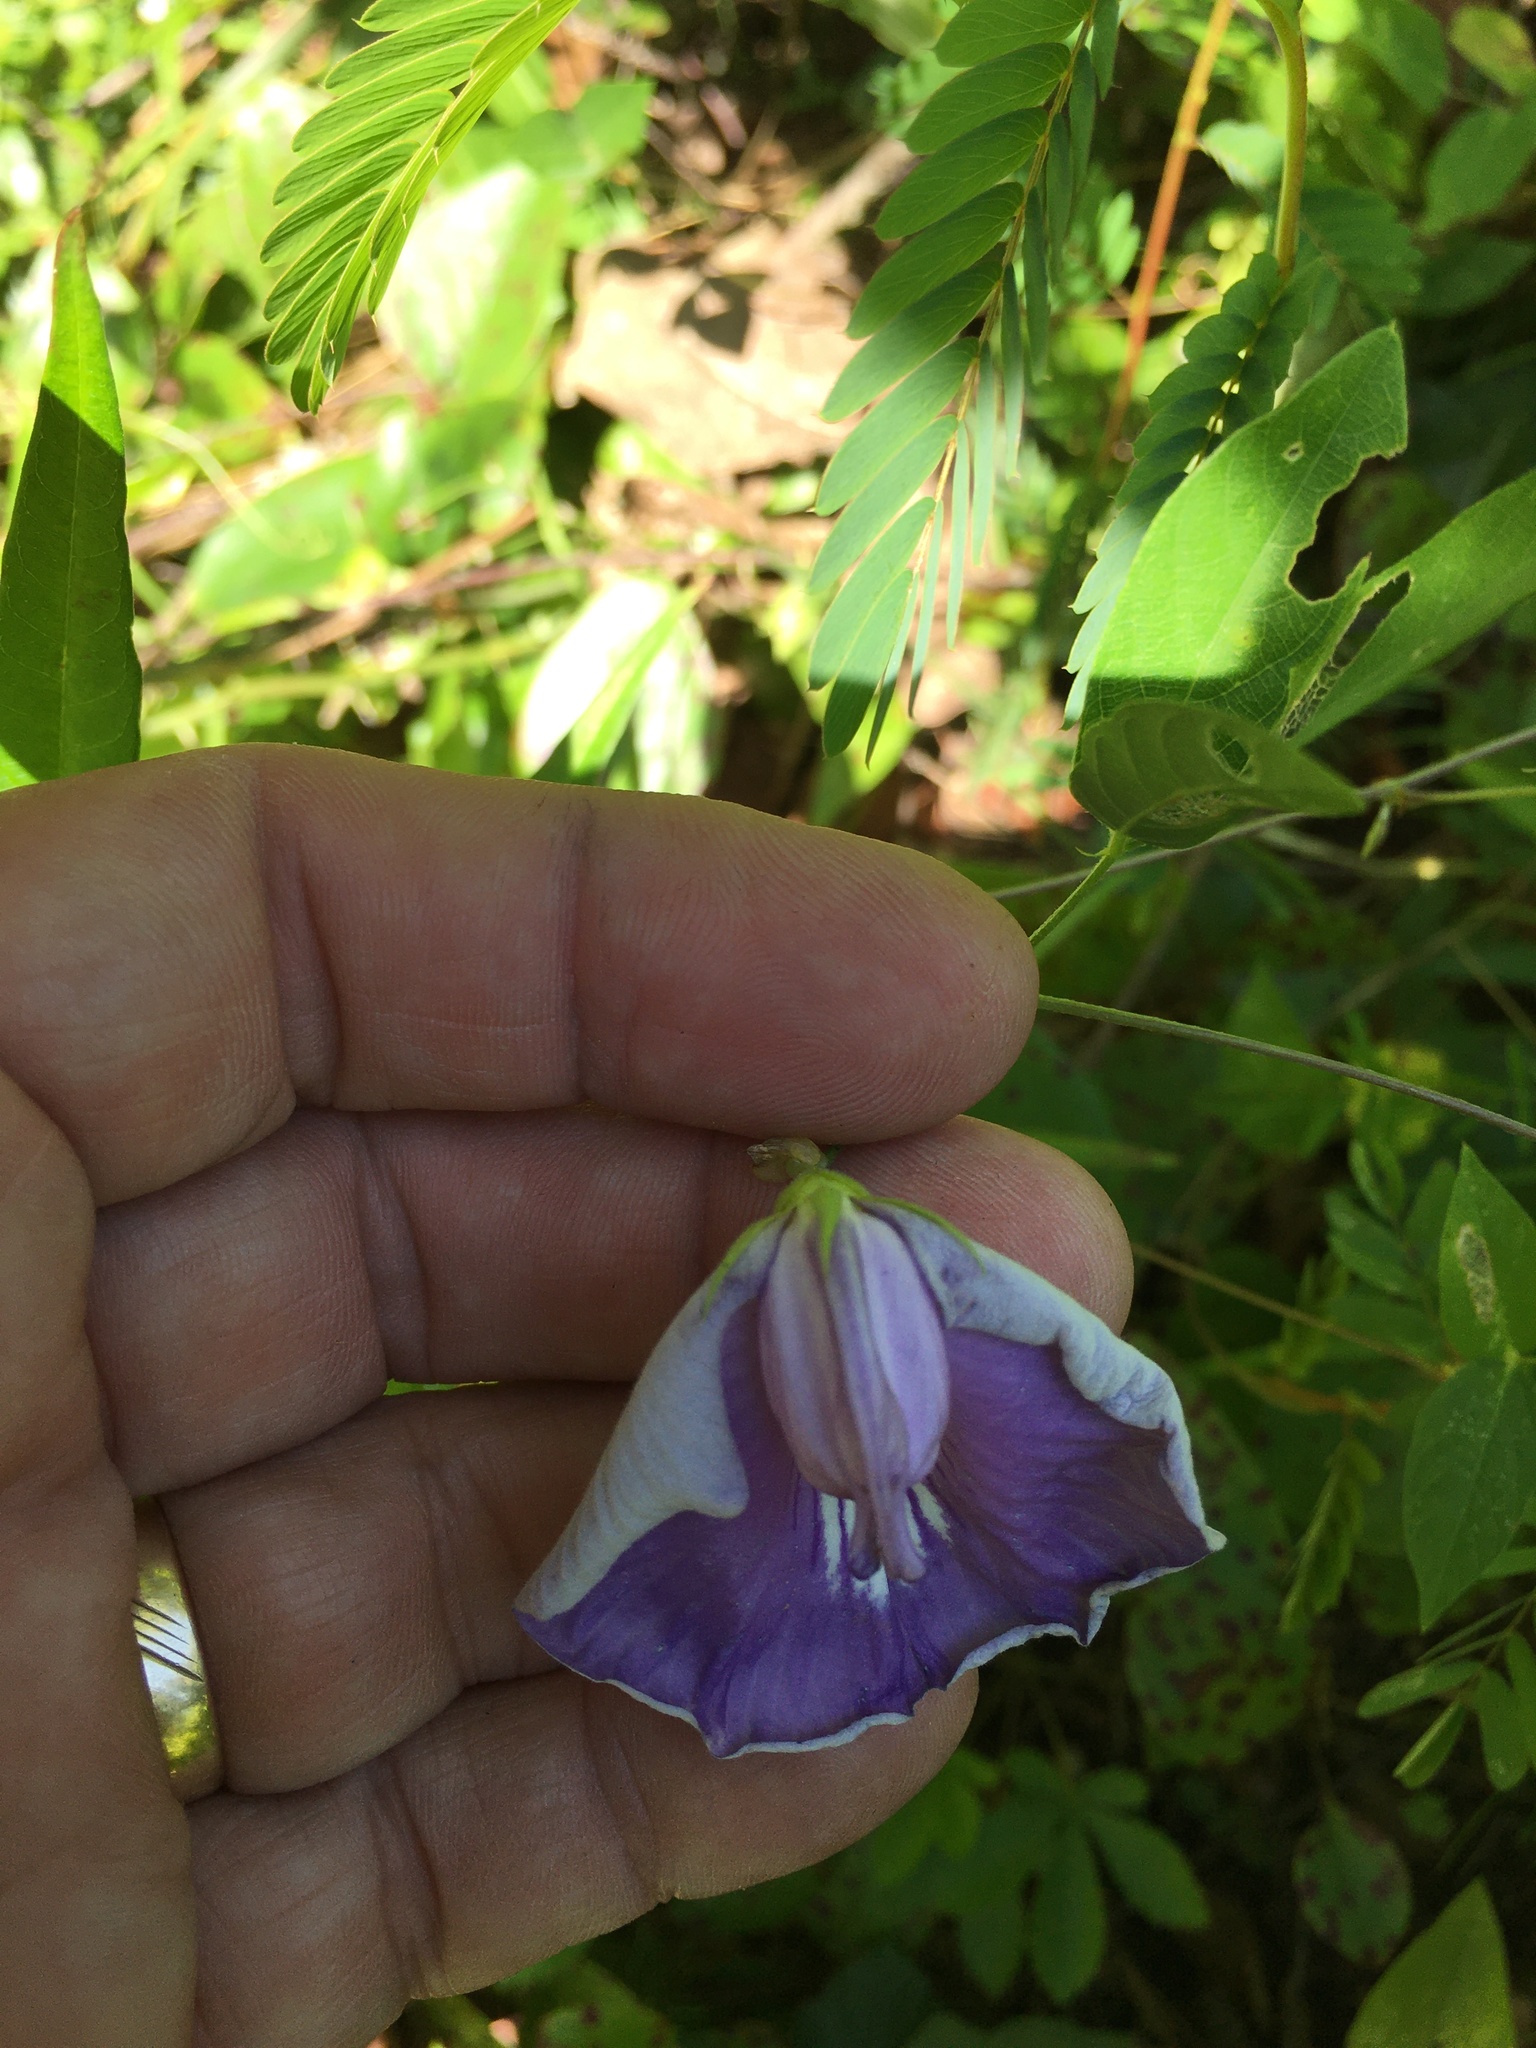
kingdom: Plantae
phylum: Tracheophyta
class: Magnoliopsida
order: Fabales
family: Fabaceae
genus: Centrosema
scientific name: Centrosema virginianum
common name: Butterfly-pea
